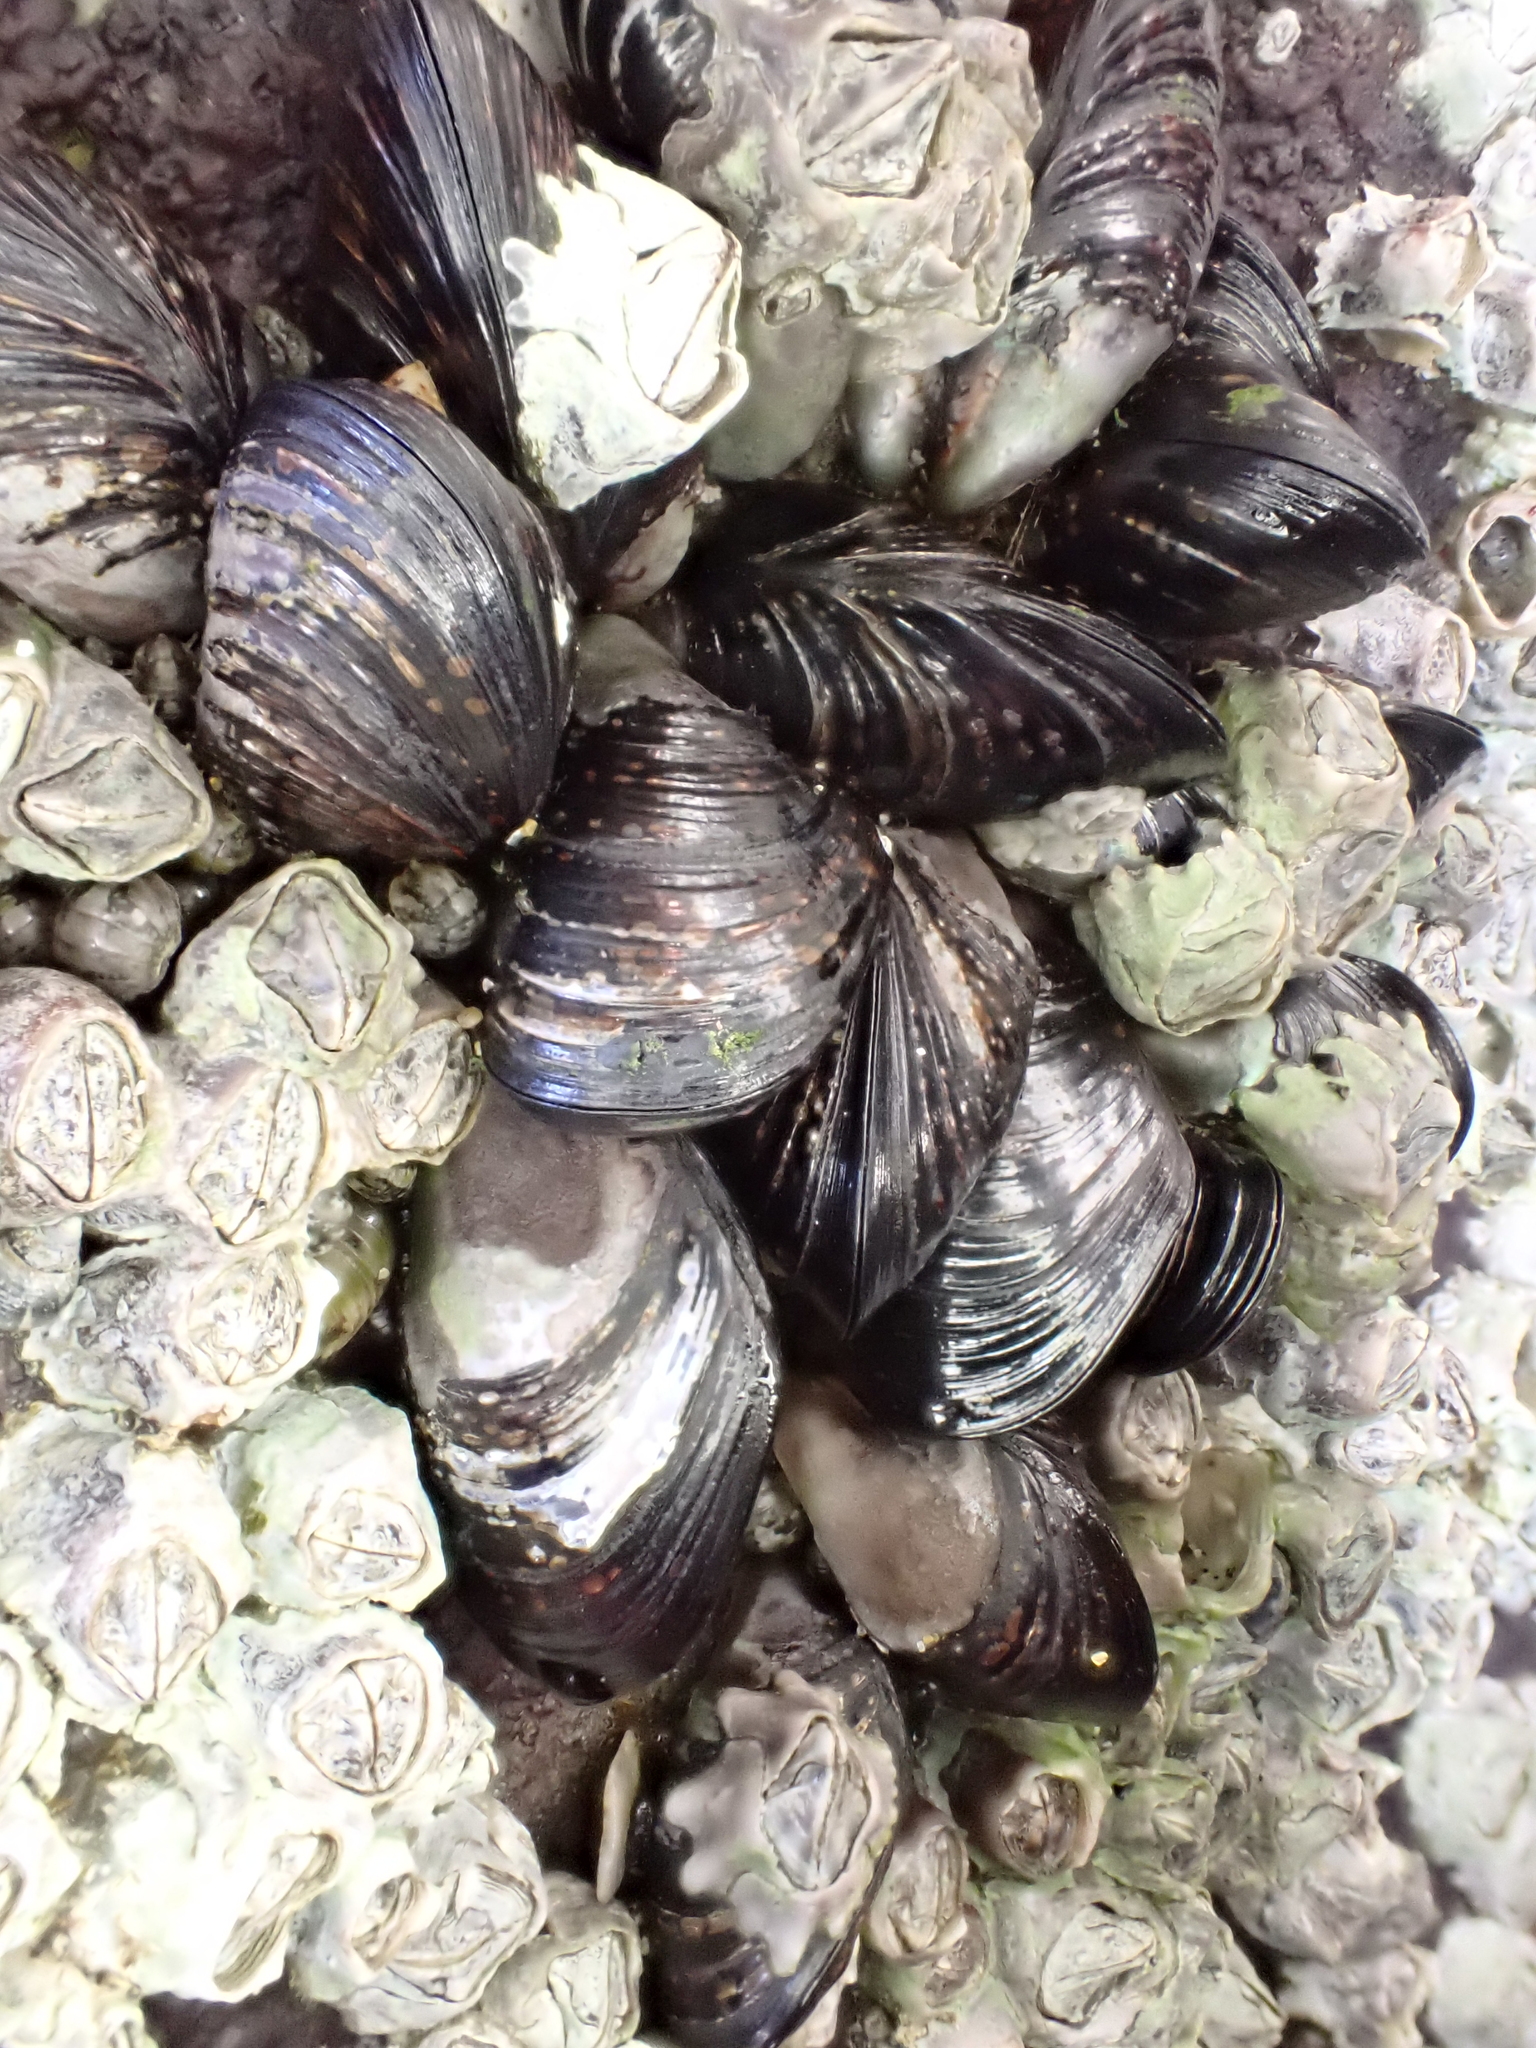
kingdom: Animalia
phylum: Mollusca
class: Bivalvia
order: Mytilida
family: Mytilidae
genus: Xenostrobus
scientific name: Xenostrobus neozelanicus
